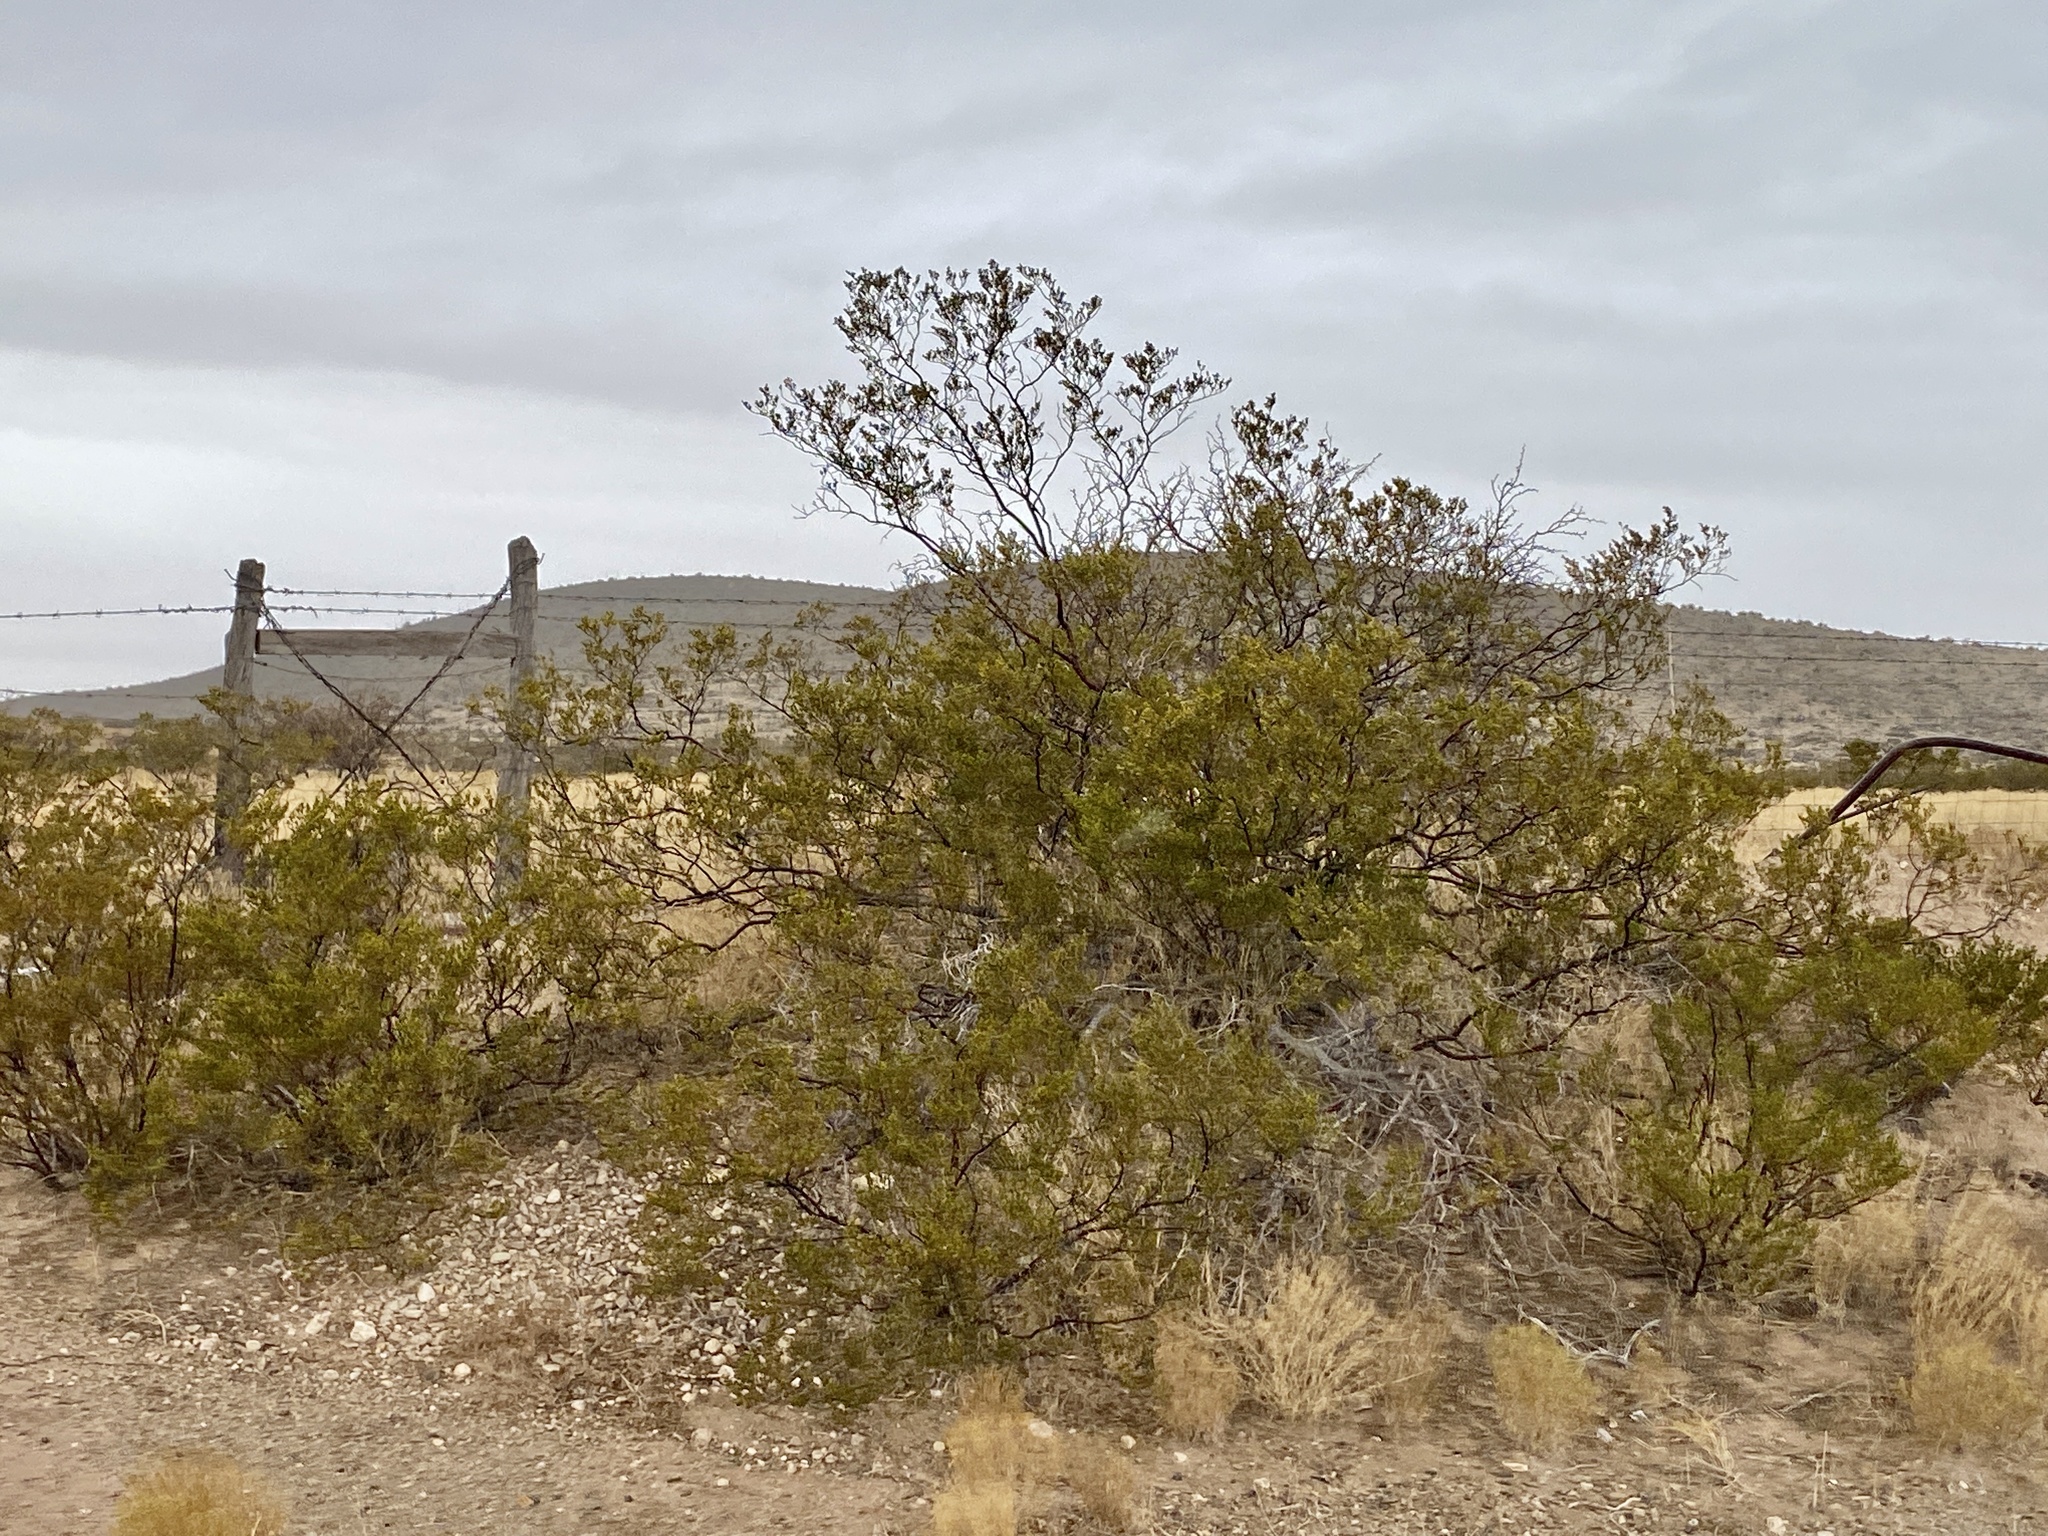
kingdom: Plantae
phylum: Tracheophyta
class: Magnoliopsida
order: Zygophyllales
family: Zygophyllaceae
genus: Larrea
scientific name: Larrea tridentata
